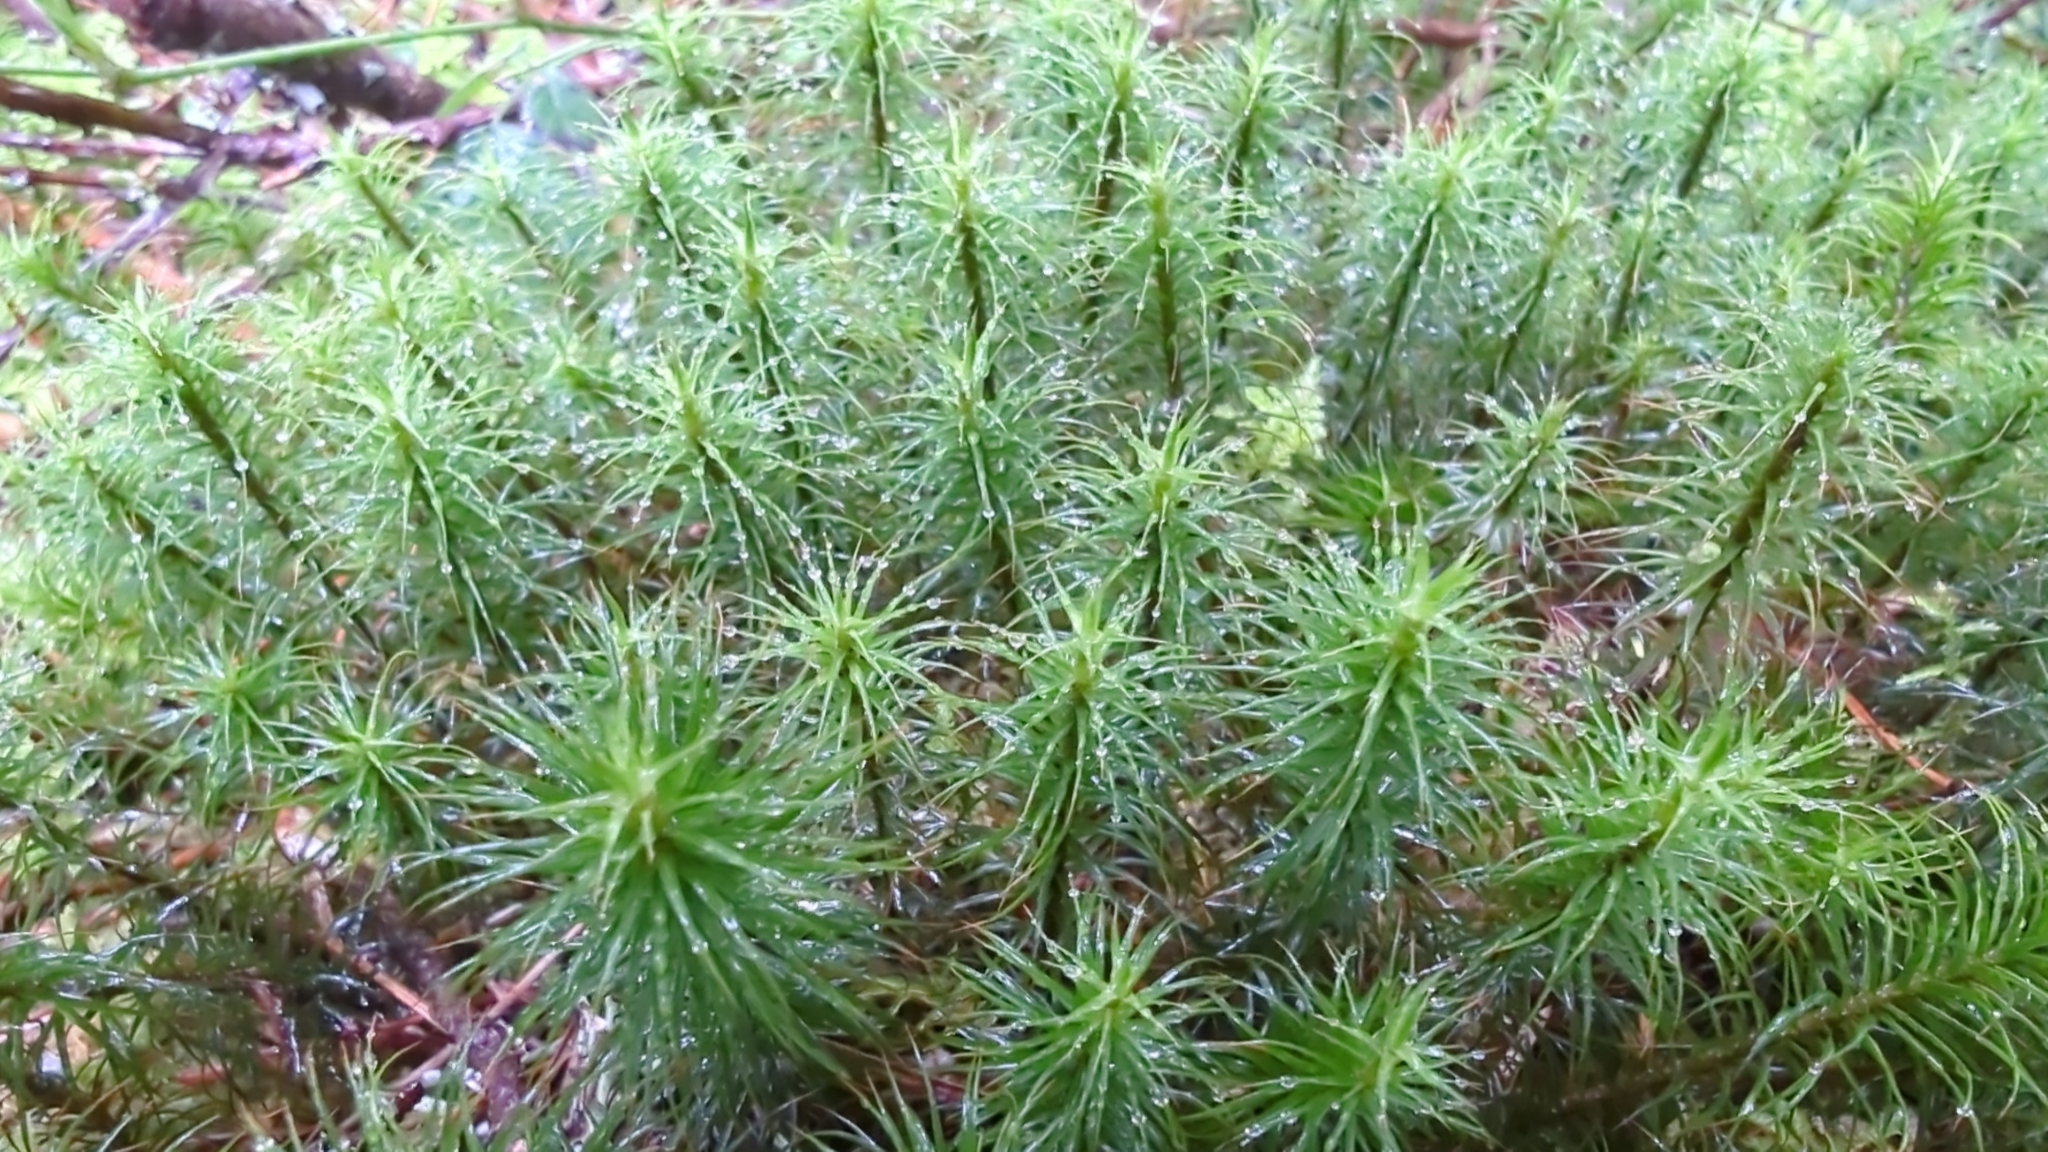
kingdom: Plantae
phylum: Bryophyta
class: Polytrichopsida
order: Polytrichales
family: Polytrichaceae
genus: Polytrichum
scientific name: Polytrichum commune
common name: Common haircap
